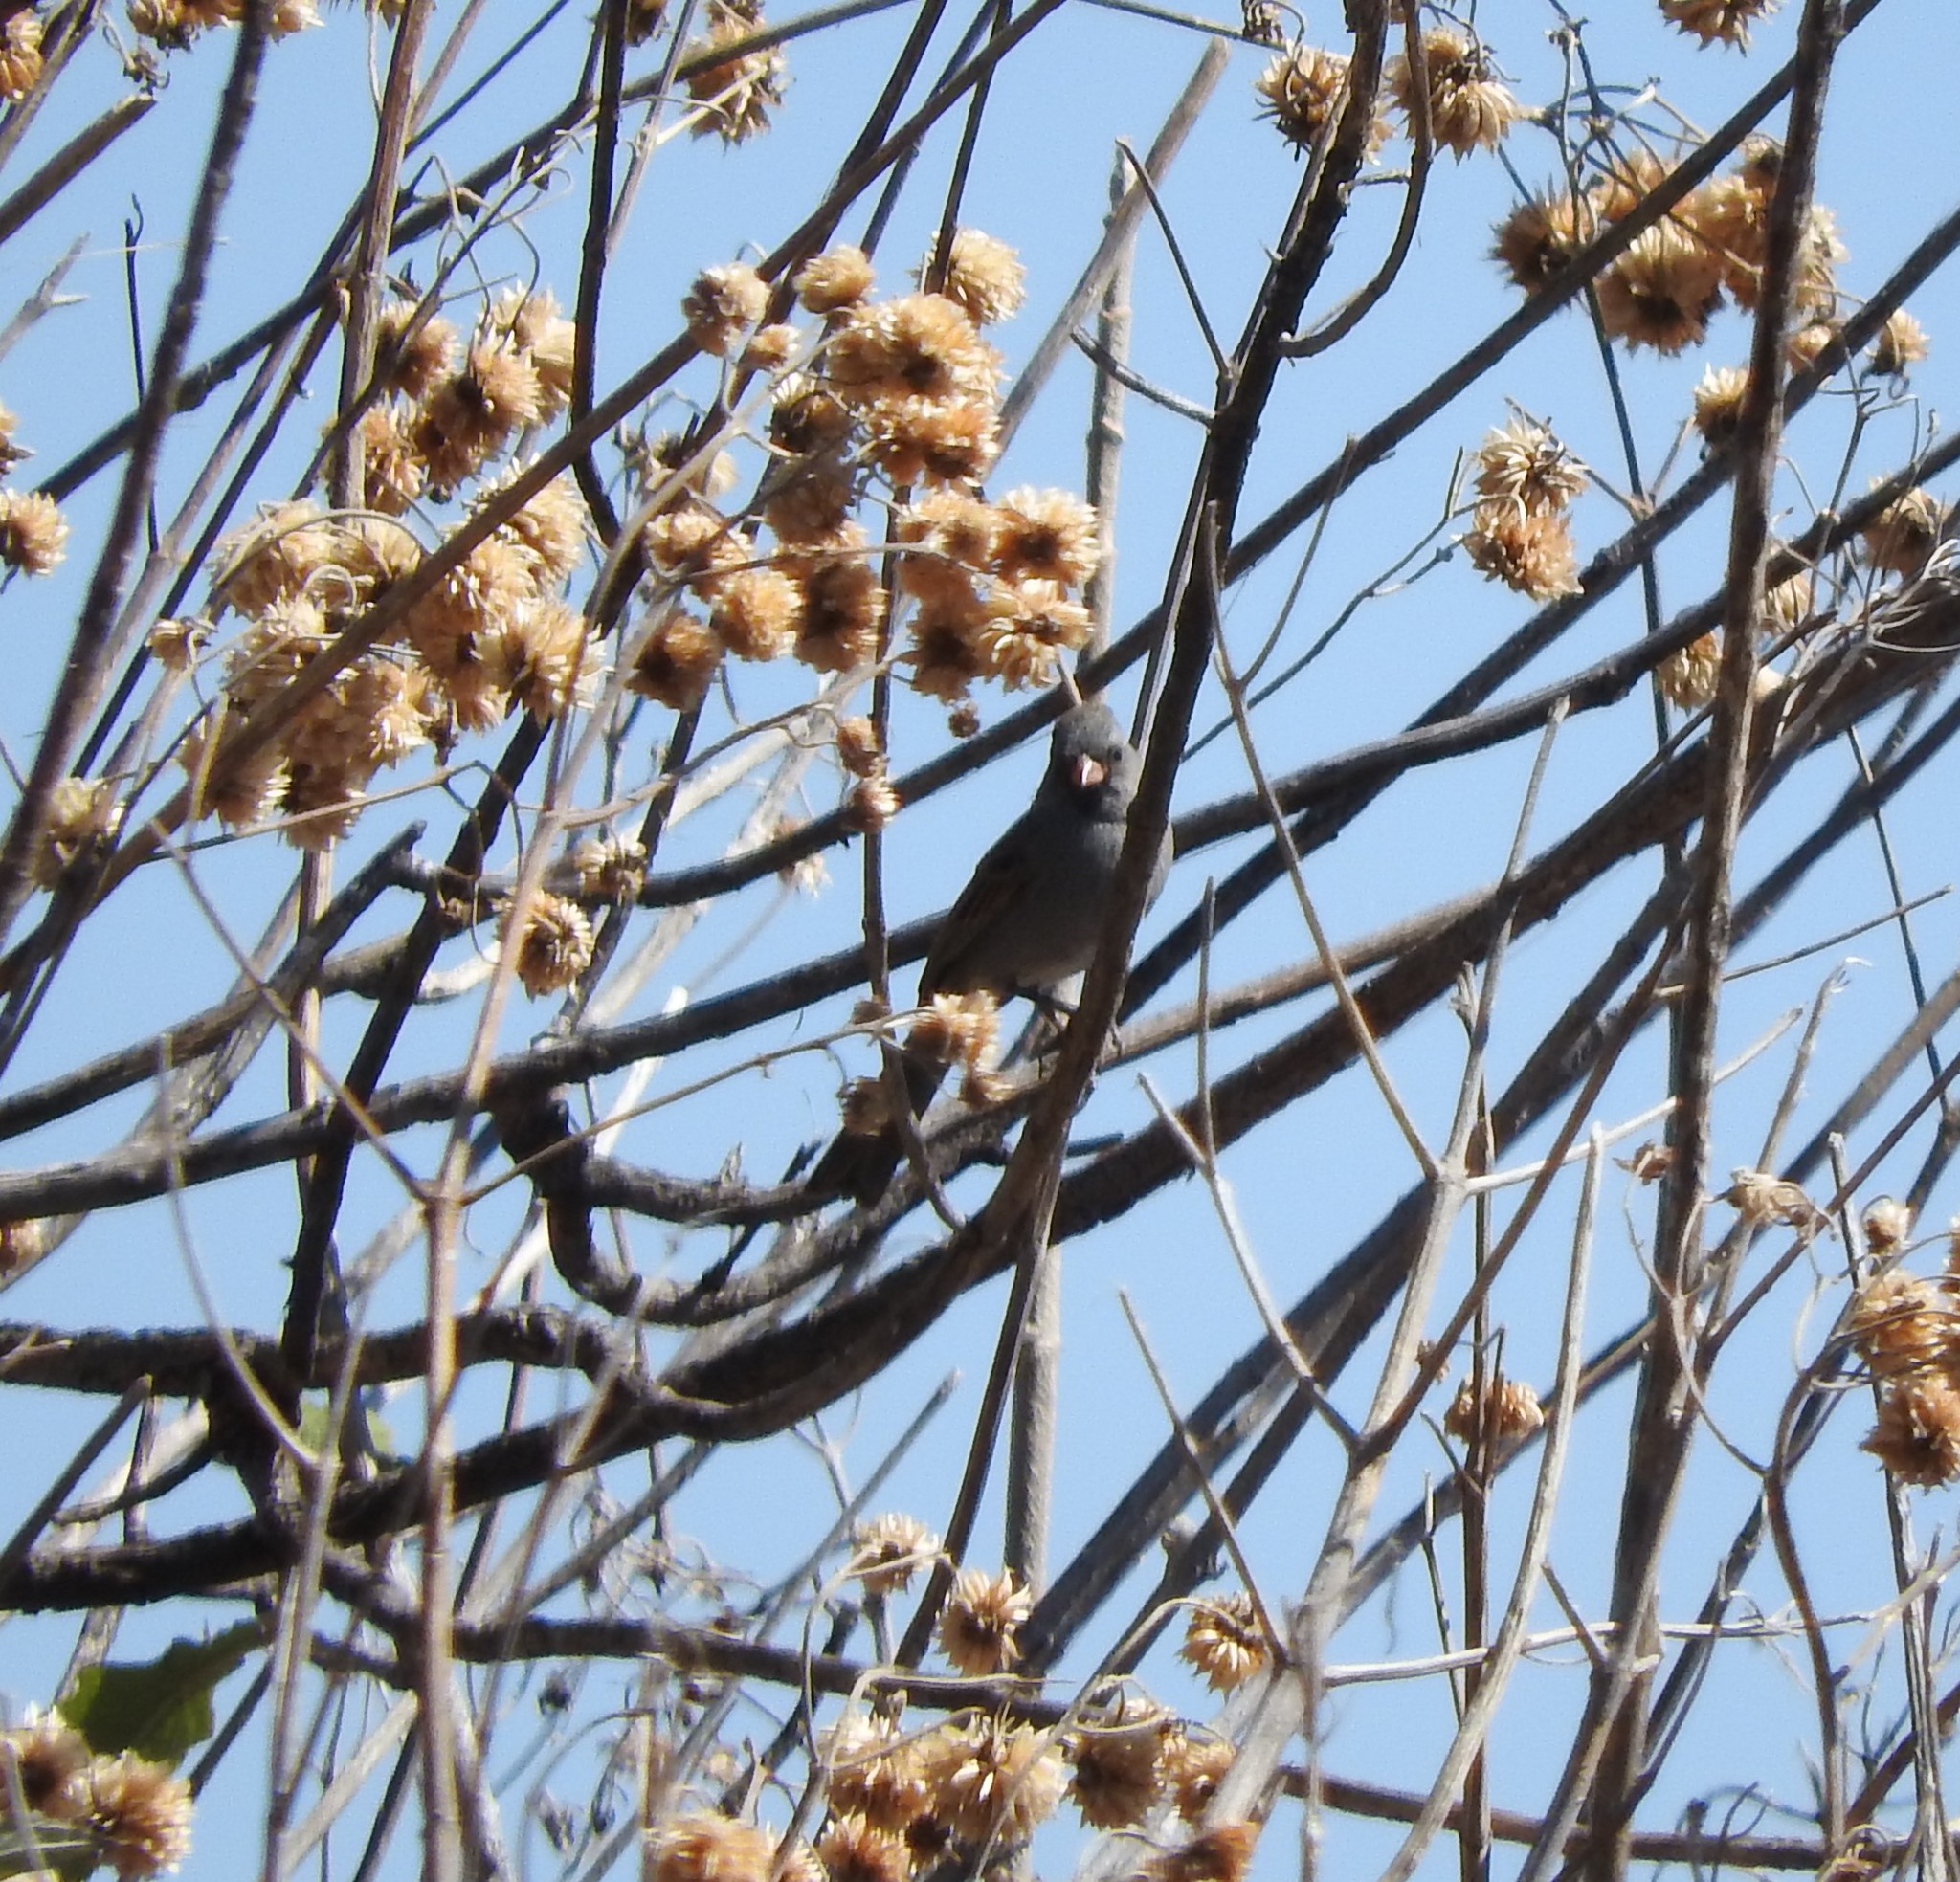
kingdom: Animalia
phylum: Chordata
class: Aves
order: Passeriformes
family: Passerellidae
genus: Spizella
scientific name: Spizella atrogularis
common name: Black-chinned sparrow
